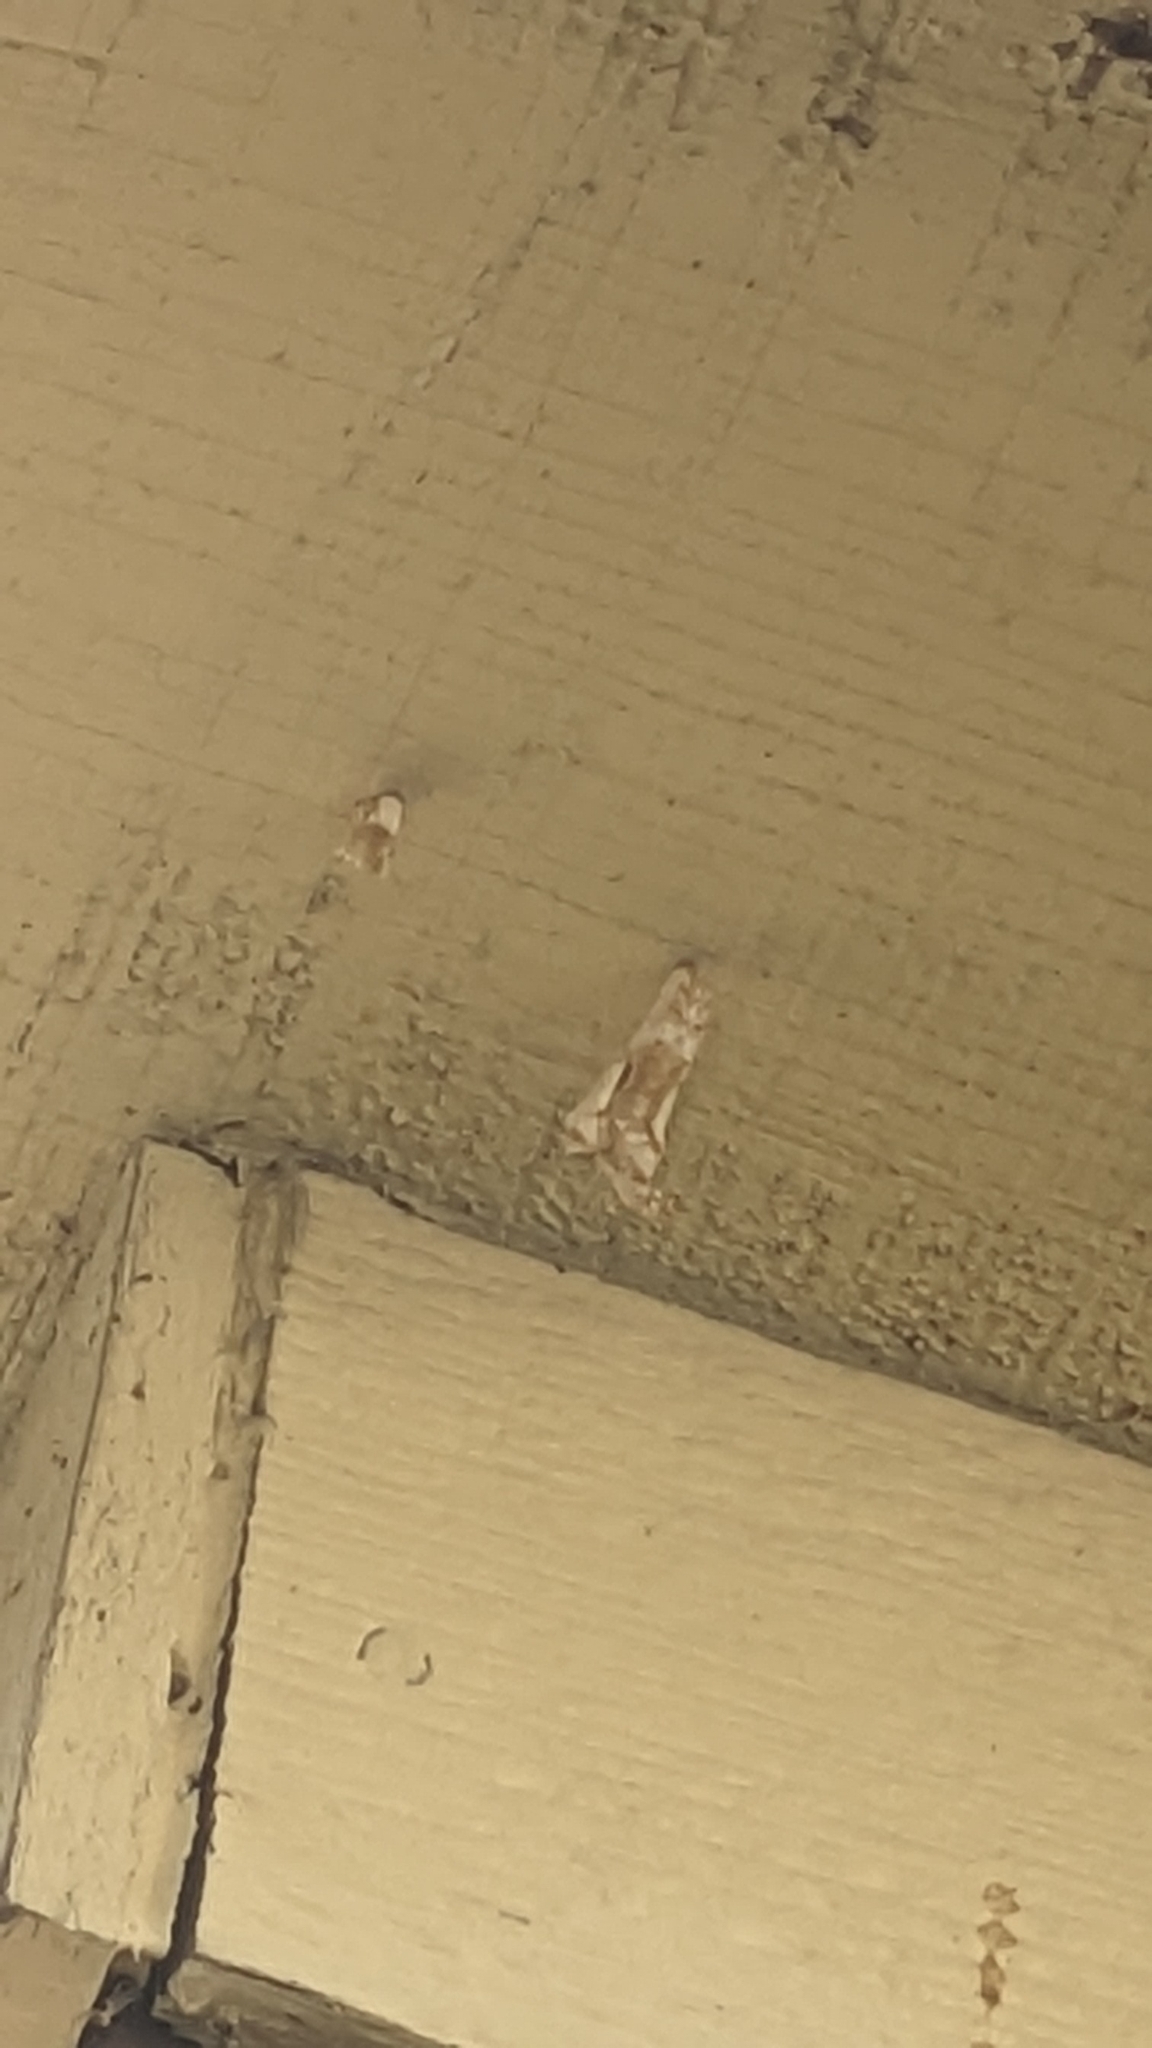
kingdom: Animalia
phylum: Arthropoda
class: Insecta
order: Lepidoptera
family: Nymphalidae
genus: Dione
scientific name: Dione vanillae
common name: Gulf fritillary
